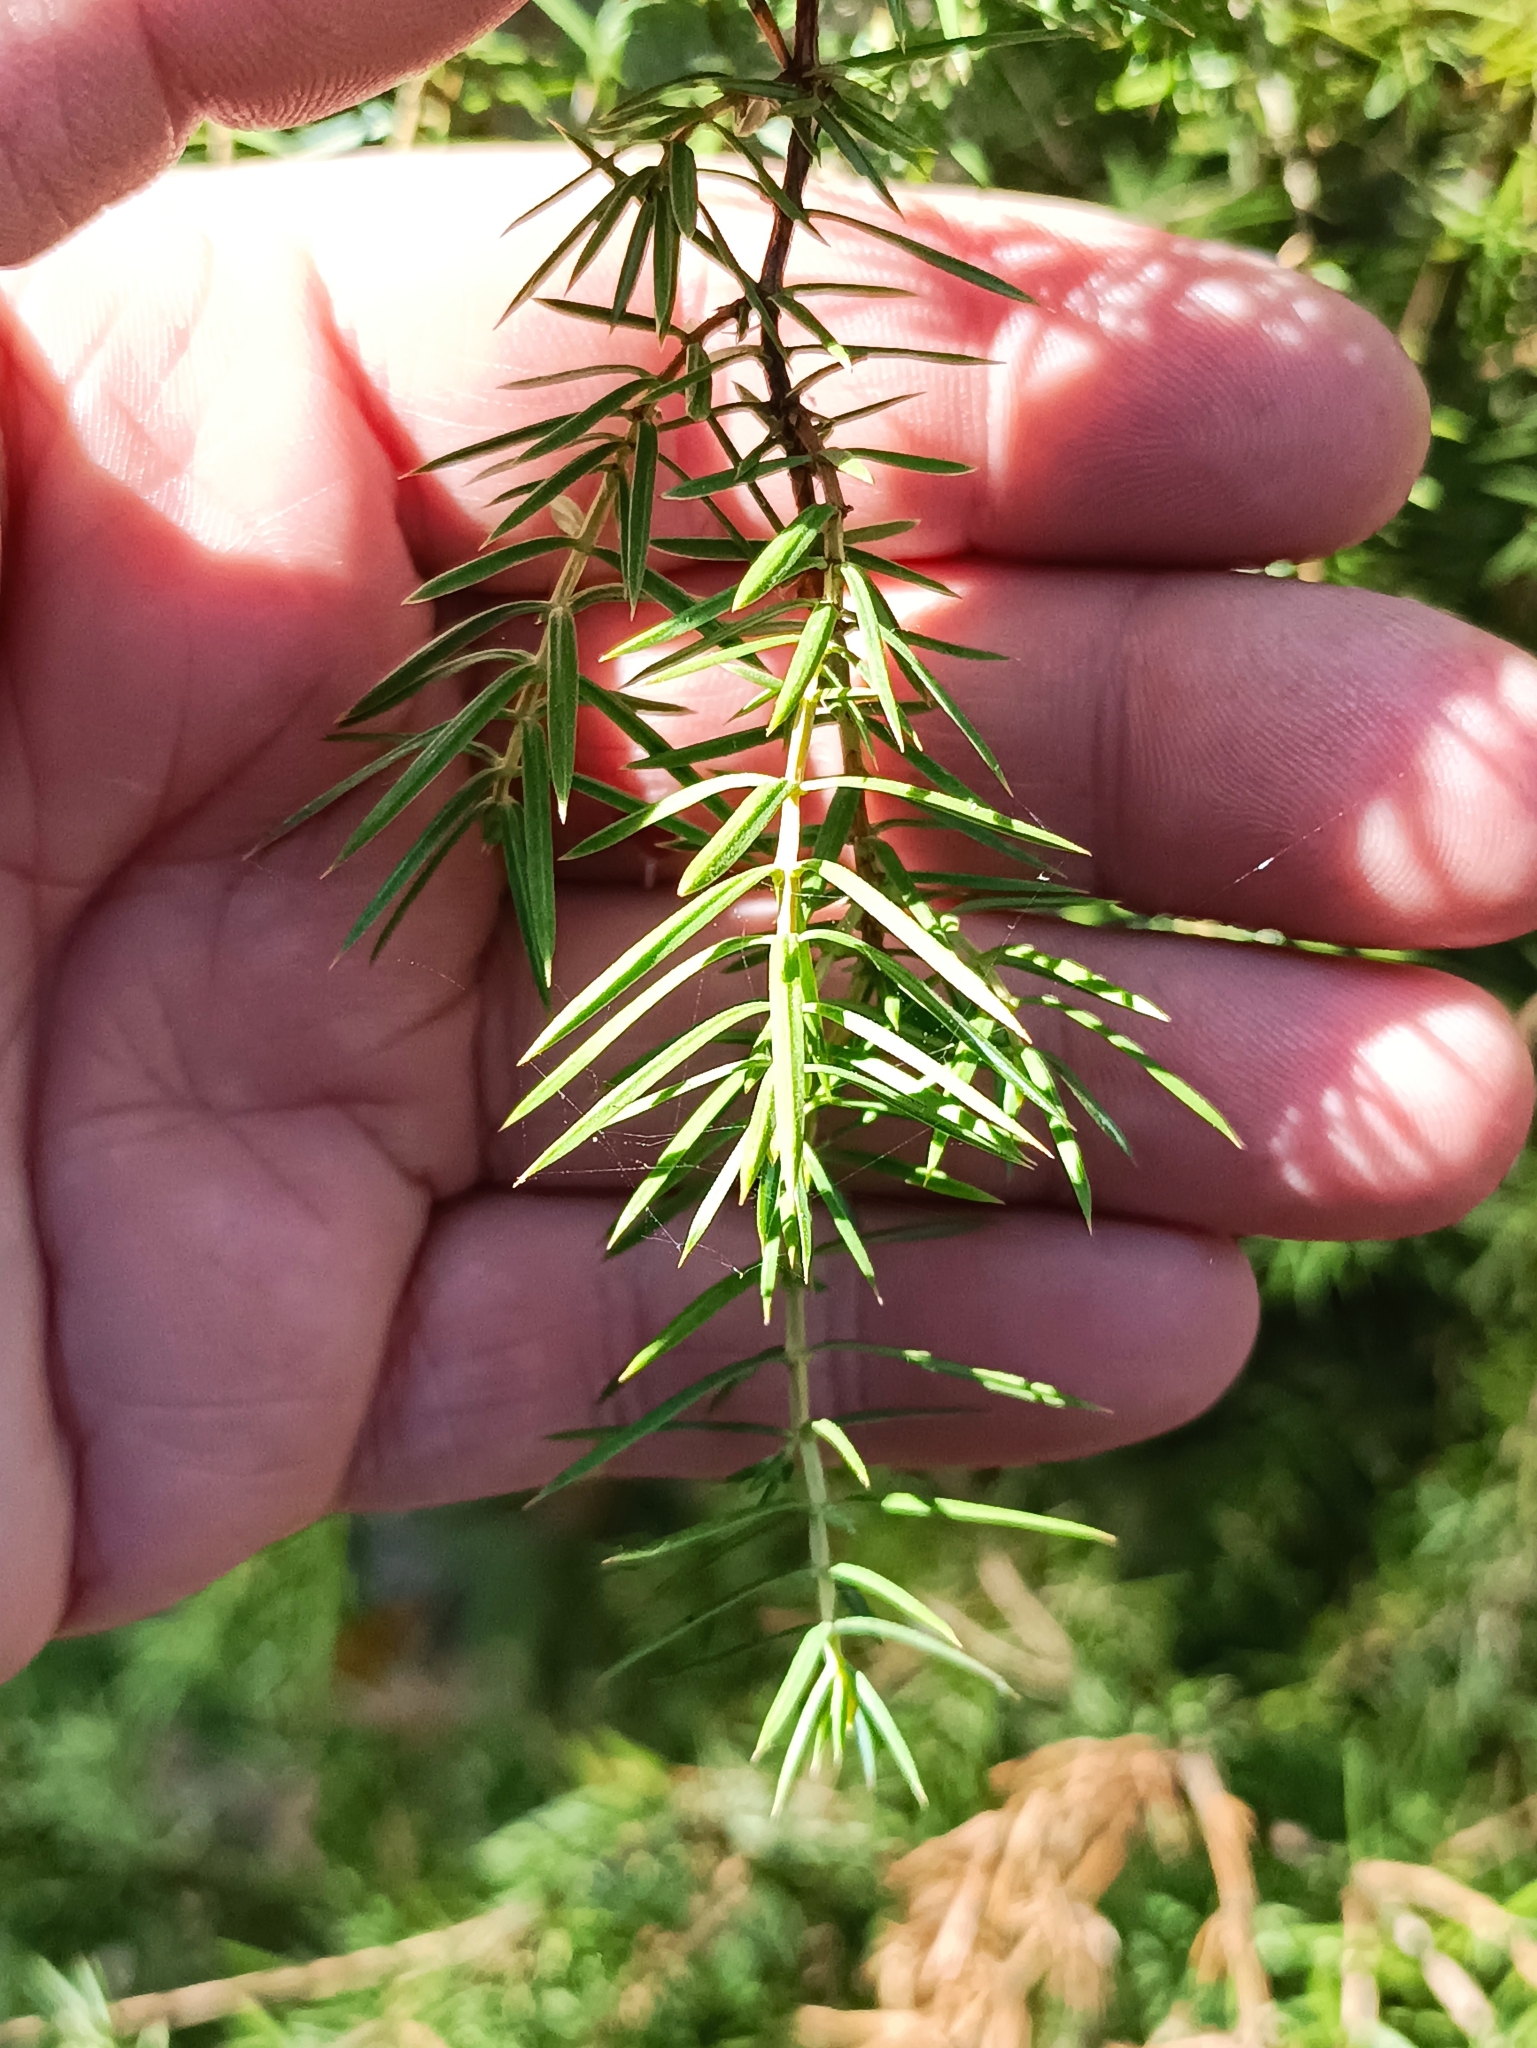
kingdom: Plantae
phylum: Tracheophyta
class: Pinopsida
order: Pinales
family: Cupressaceae
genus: Juniperus
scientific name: Juniperus communis
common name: Common juniper
